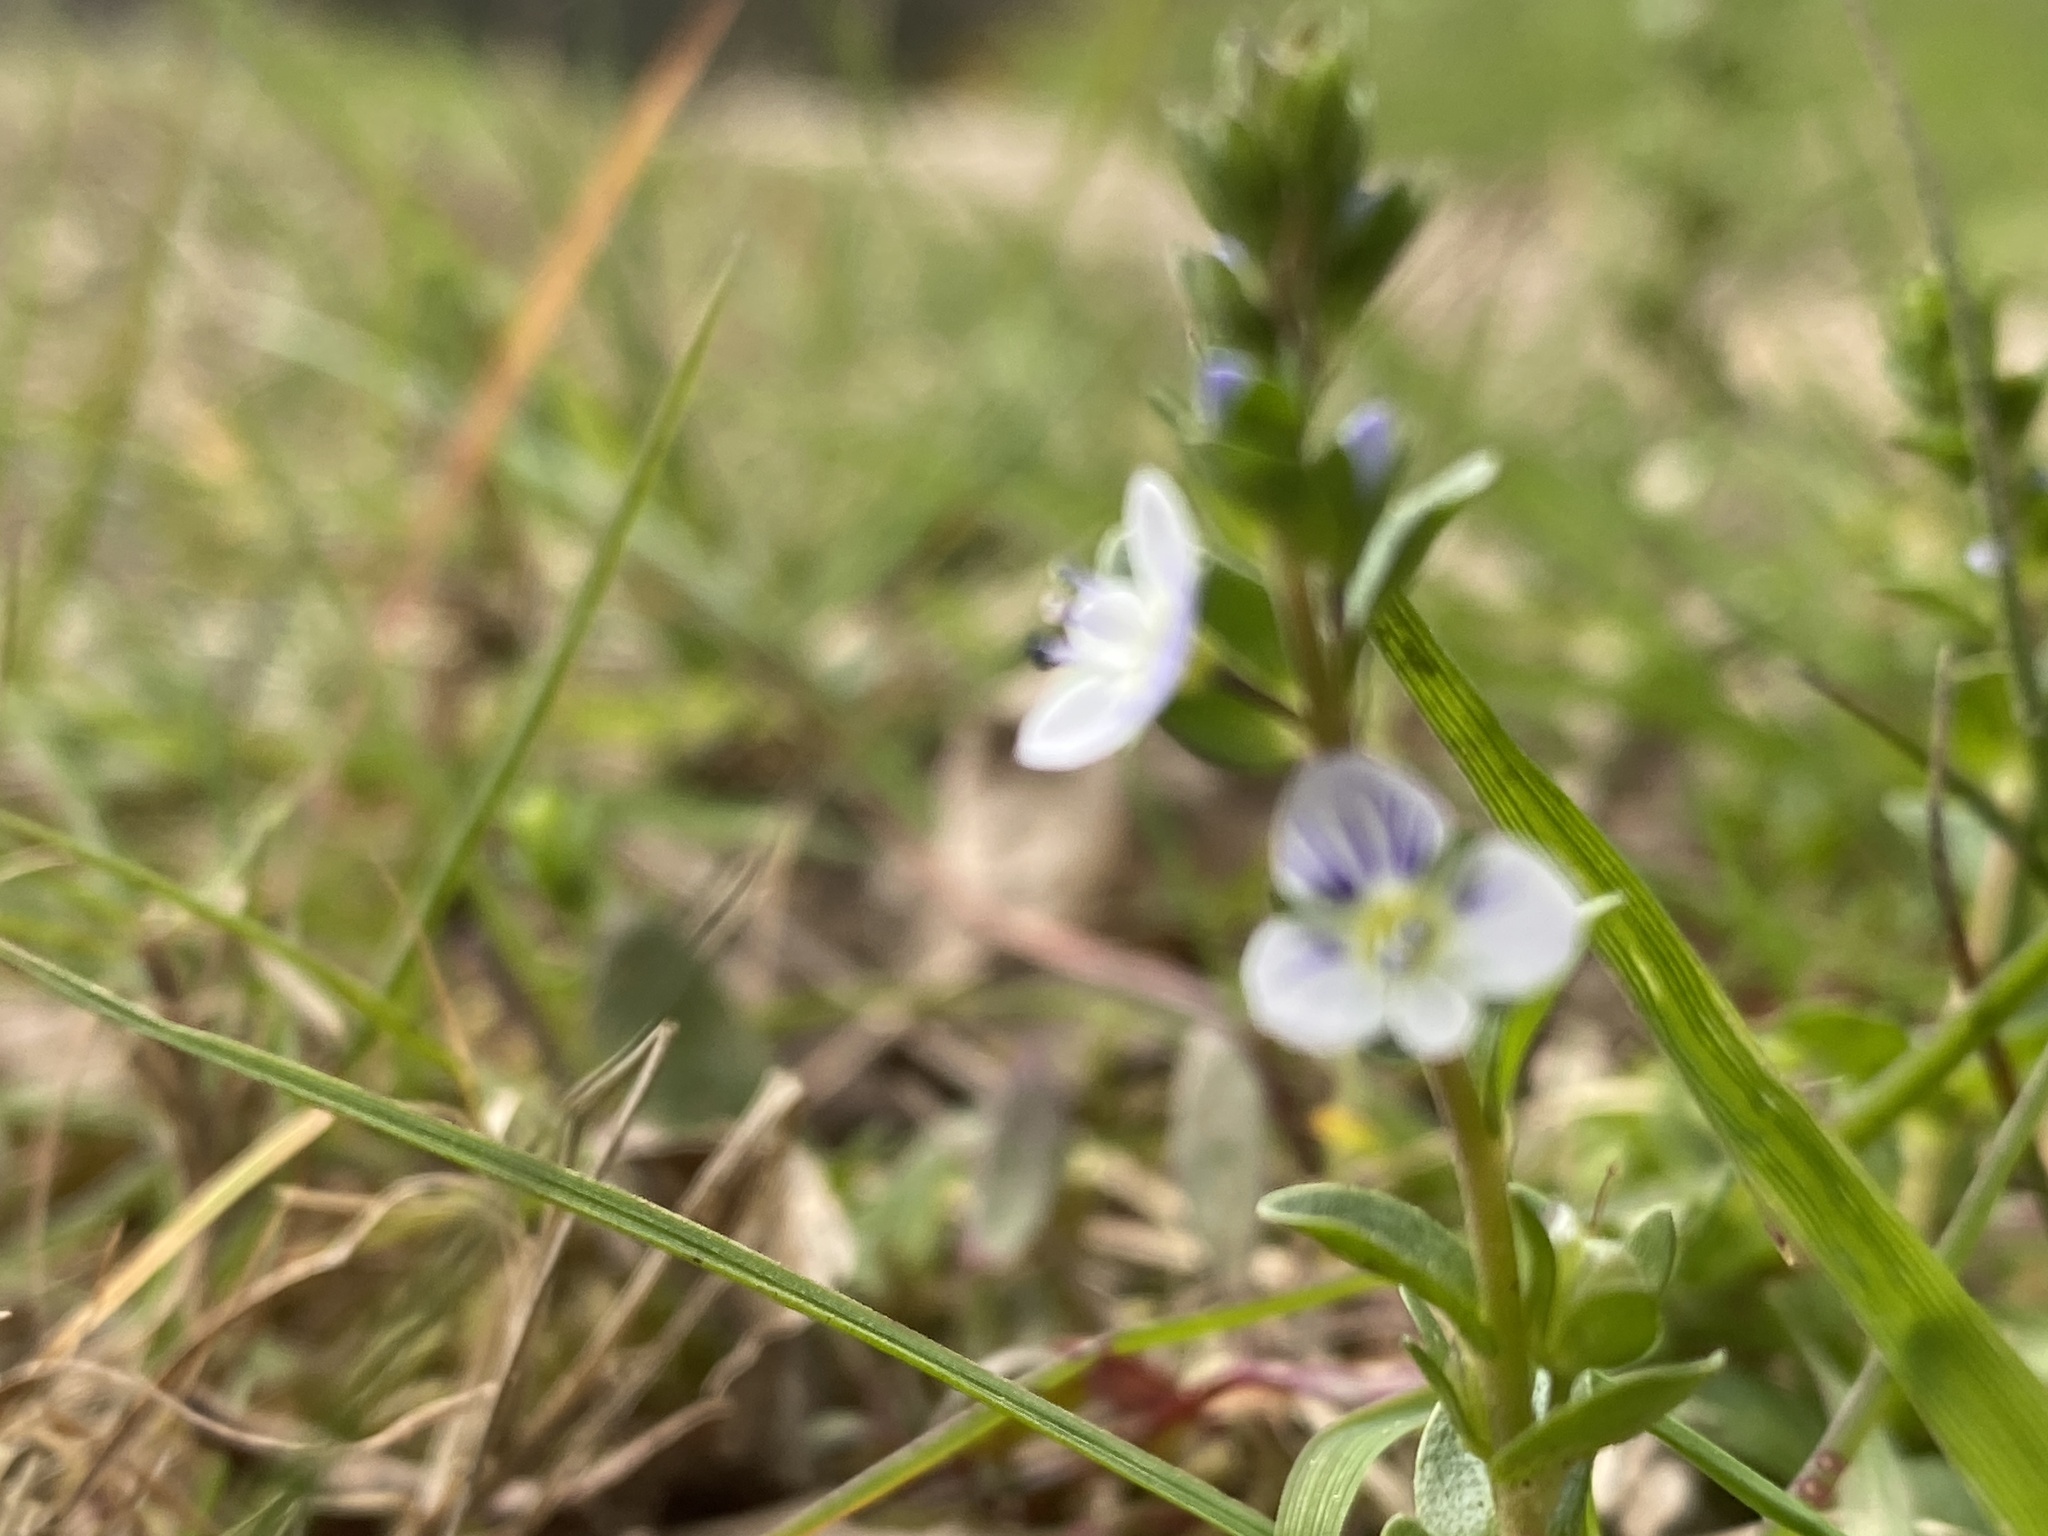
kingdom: Plantae
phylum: Tracheophyta
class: Magnoliopsida
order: Lamiales
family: Plantaginaceae
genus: Veronica
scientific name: Veronica serpyllifolia
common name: Thyme-leaved speedwell
